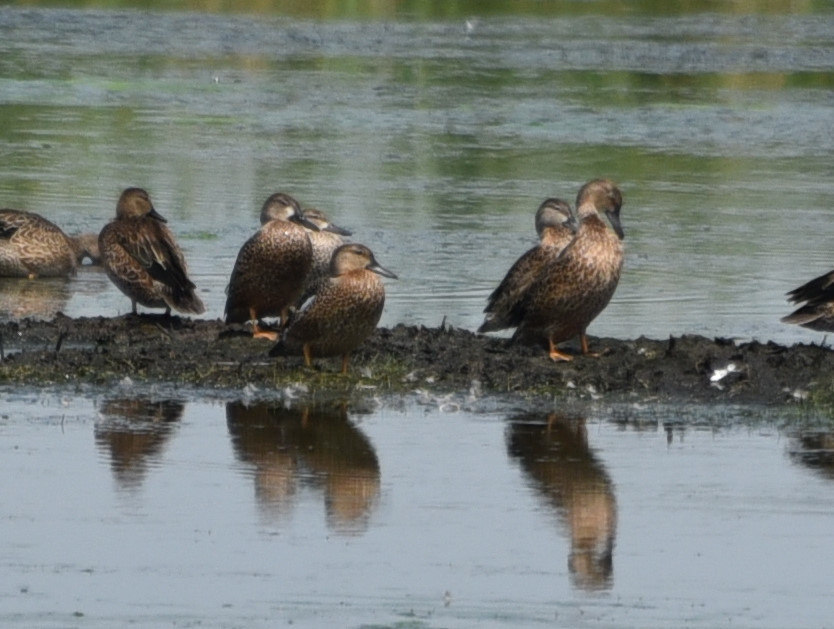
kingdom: Animalia
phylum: Chordata
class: Aves
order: Anseriformes
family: Anatidae
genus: Spatula
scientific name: Spatula discors
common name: Blue-winged teal
